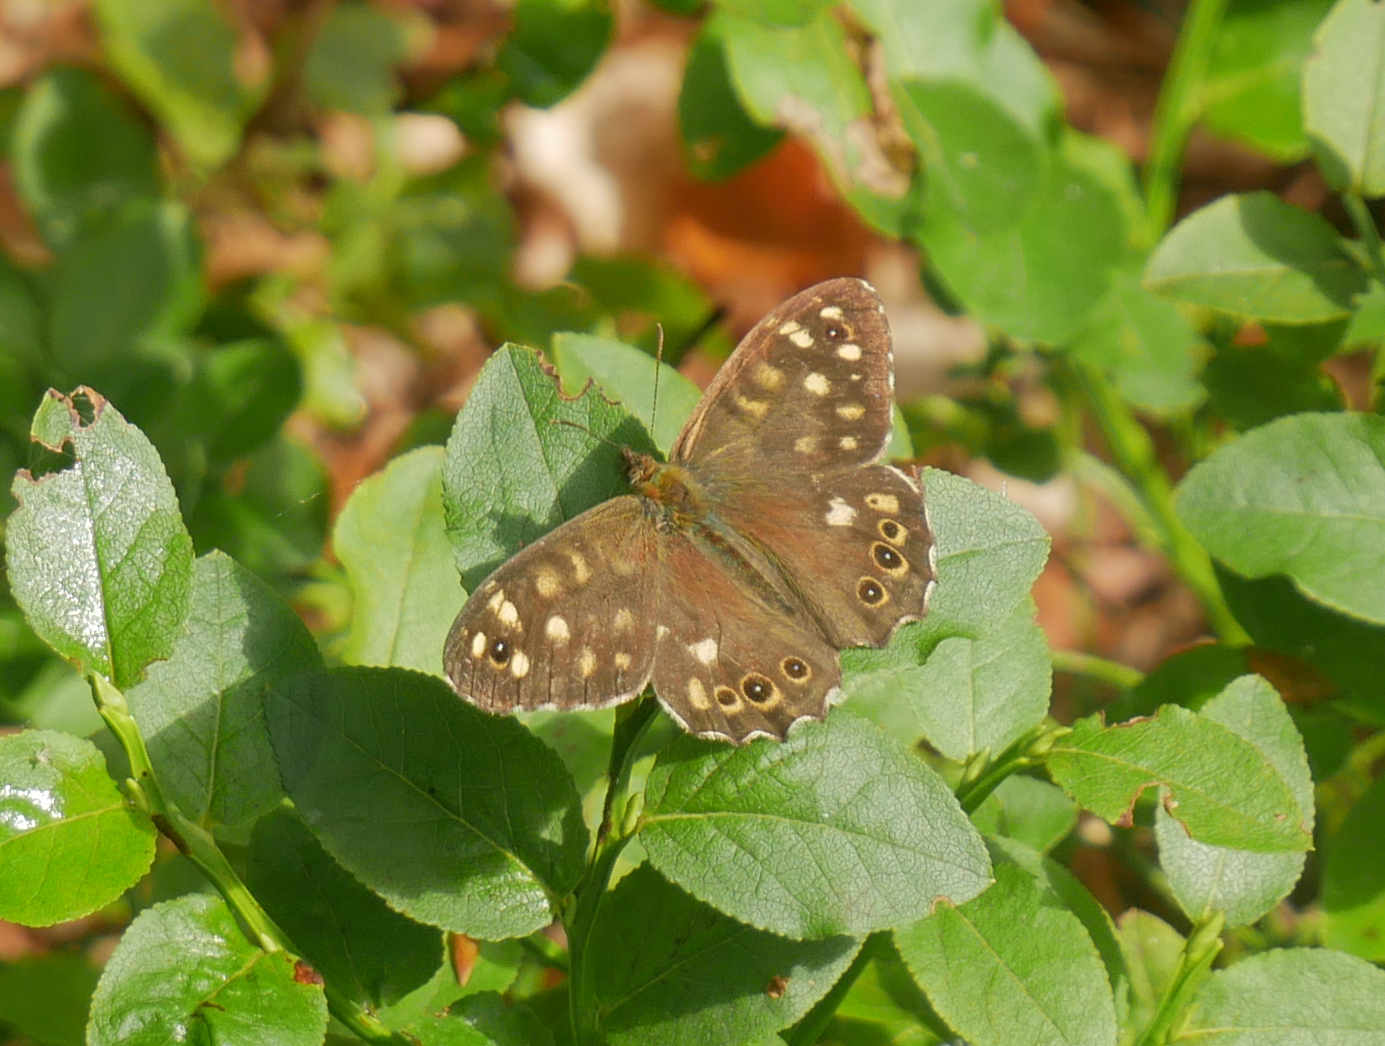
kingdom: Animalia
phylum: Arthropoda
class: Insecta
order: Lepidoptera
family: Nymphalidae
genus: Pararge
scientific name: Pararge aegeria
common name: Speckled wood
